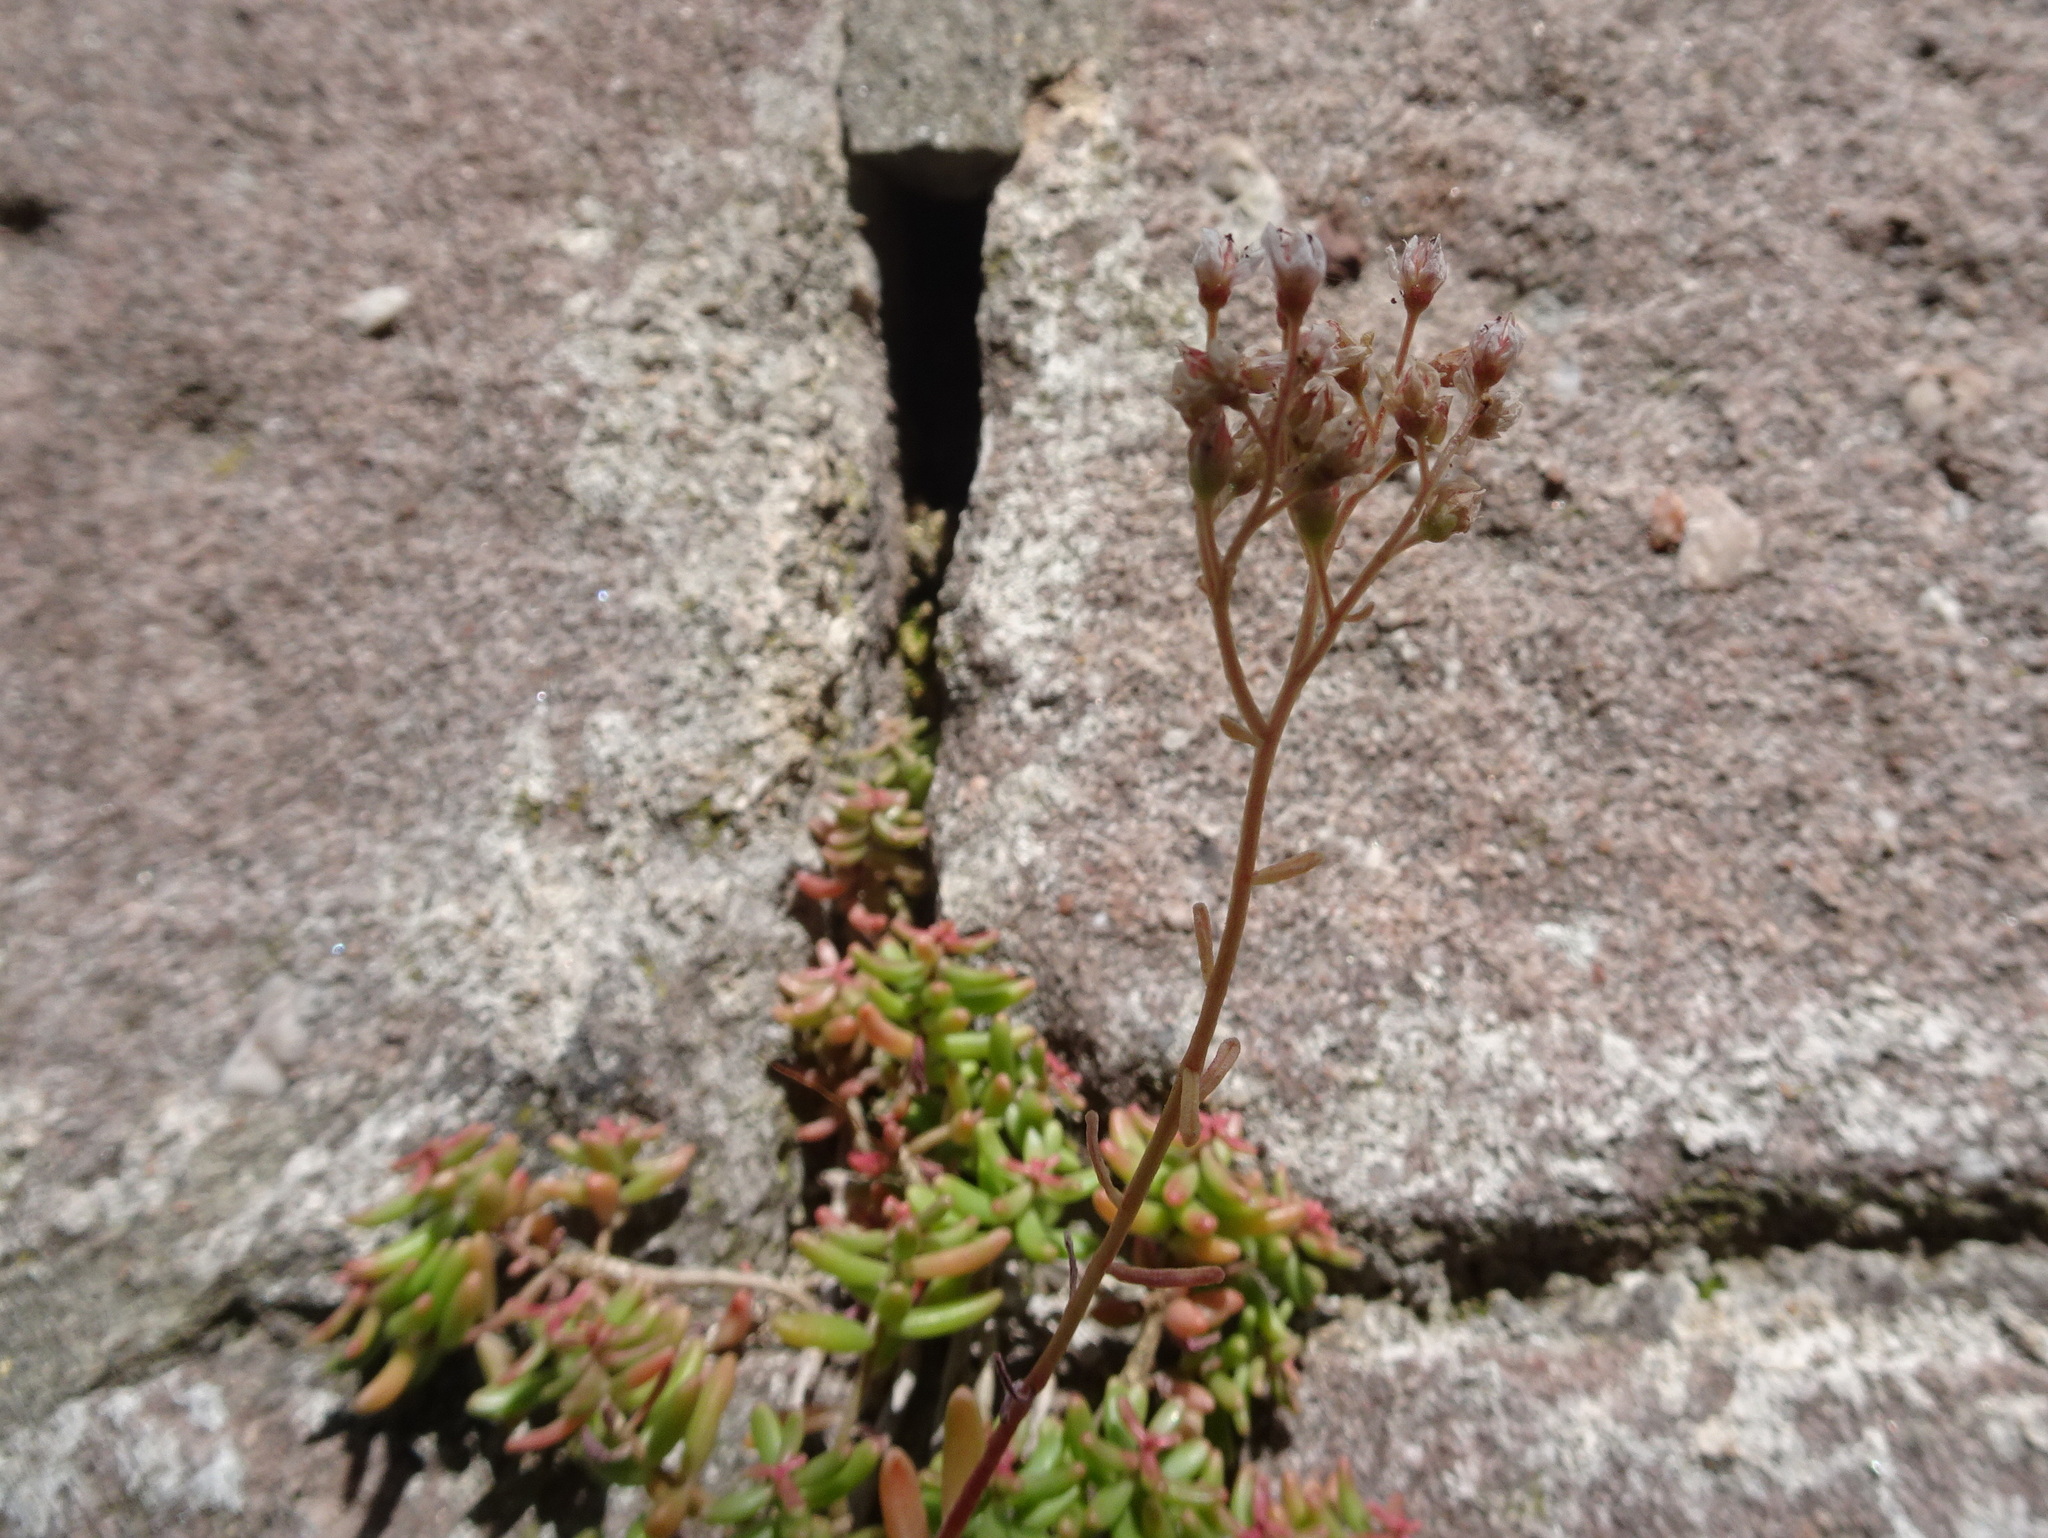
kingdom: Plantae
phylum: Tracheophyta
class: Magnoliopsida
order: Saxifragales
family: Crassulaceae
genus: Sedum
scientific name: Sedum album
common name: White stonecrop
